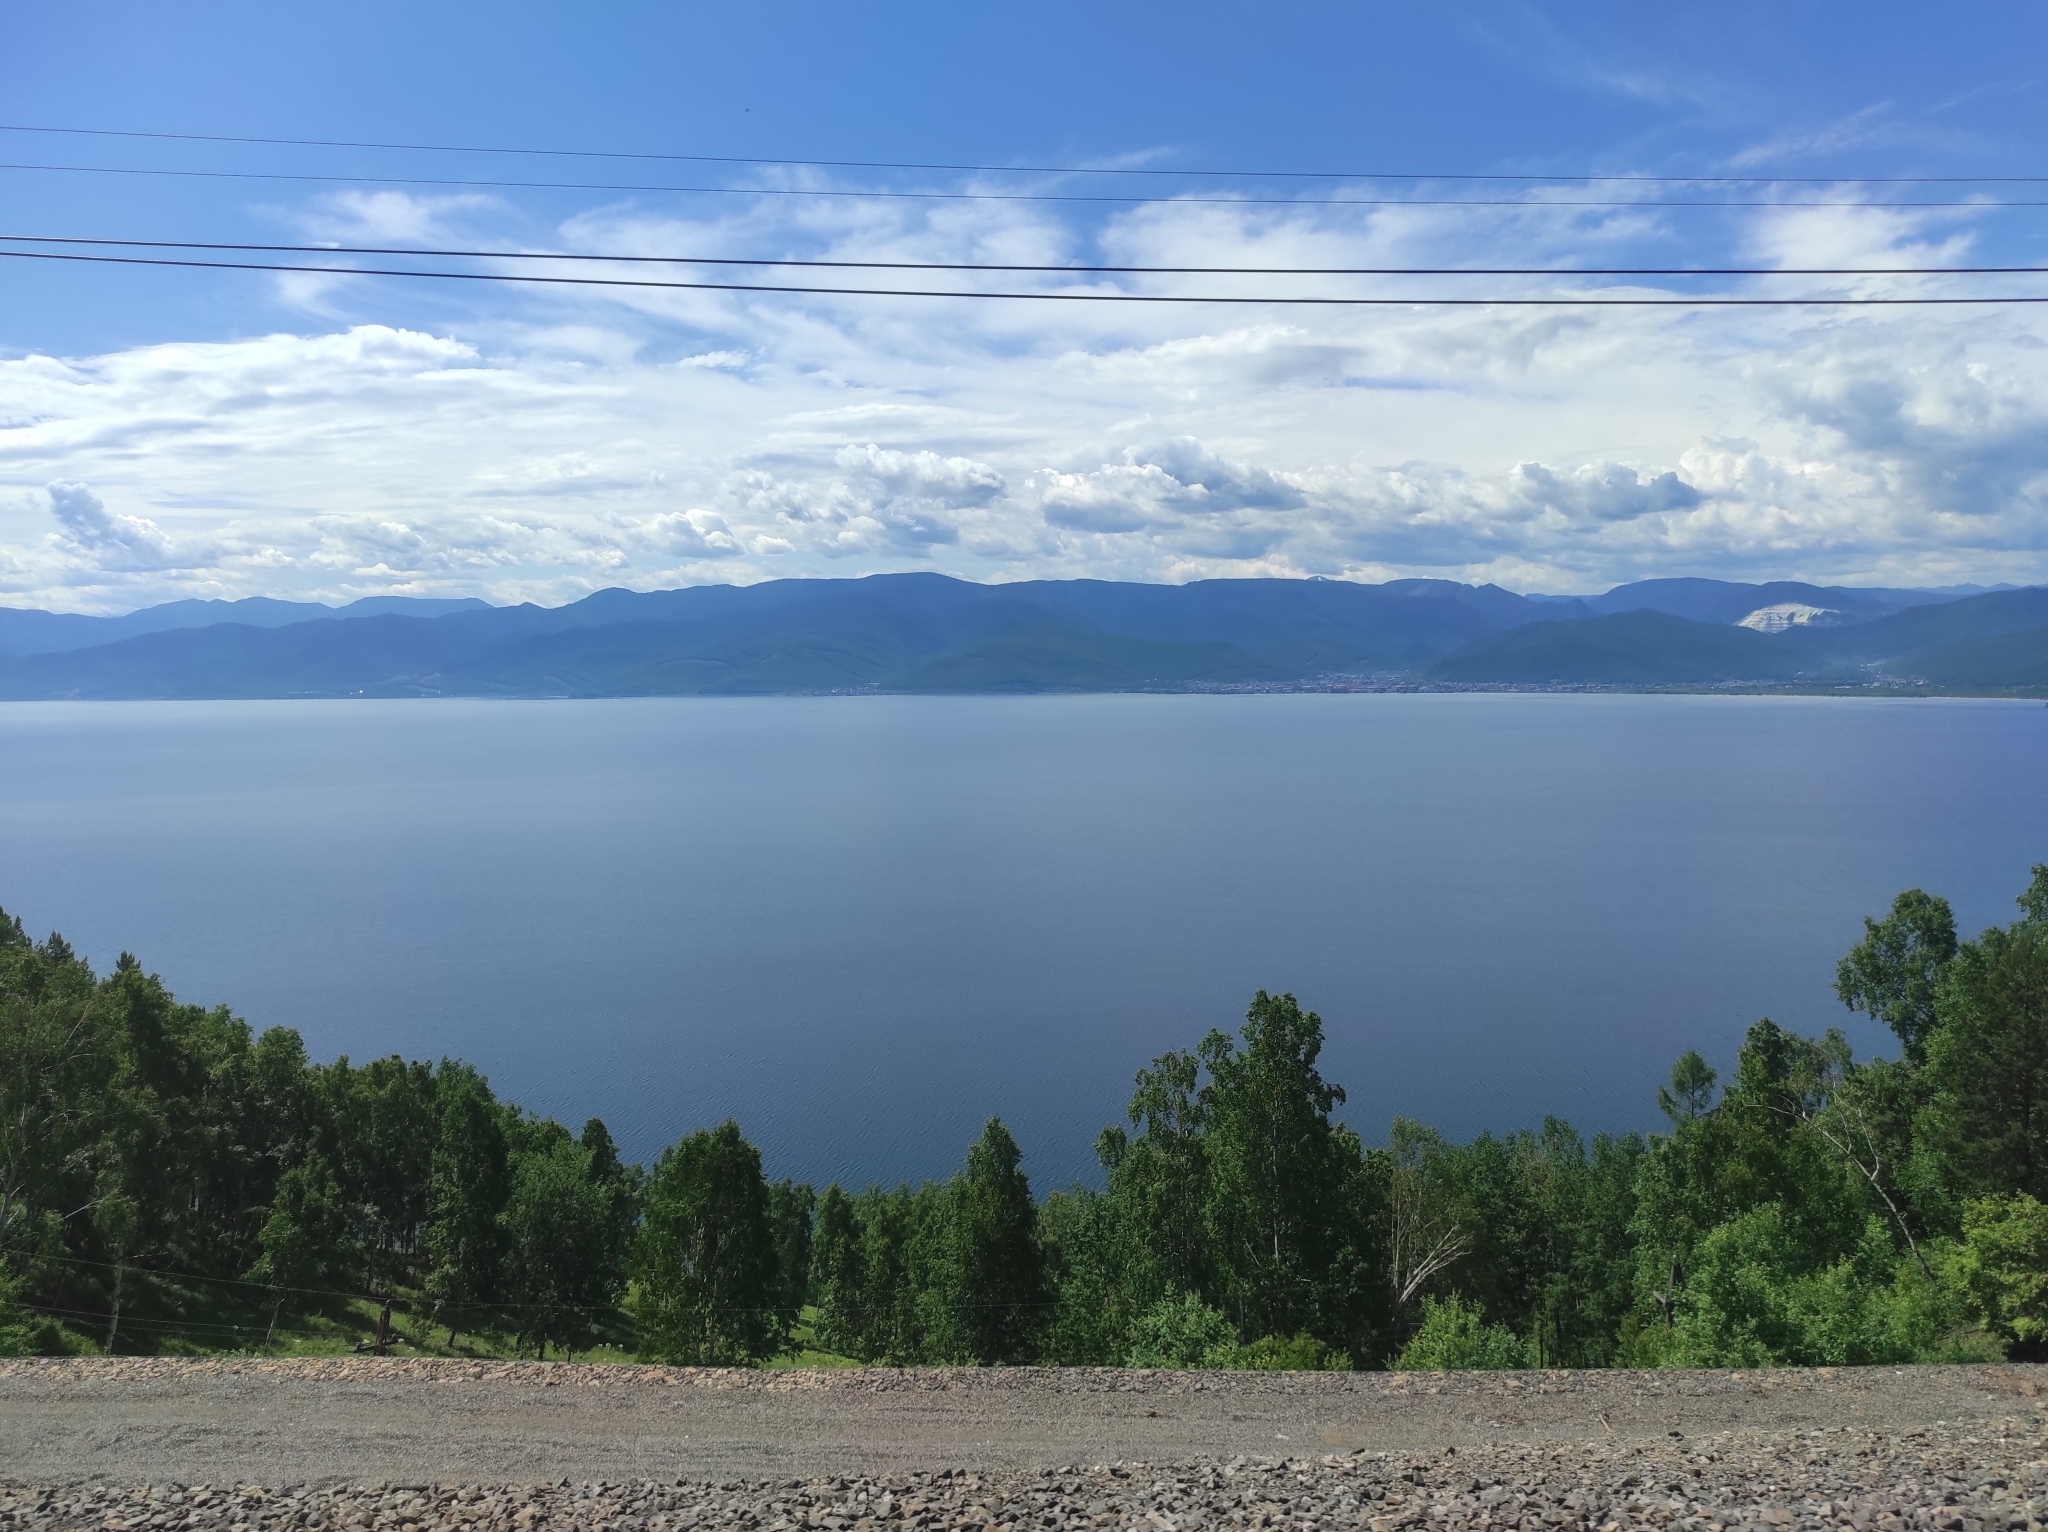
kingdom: Plantae
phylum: Tracheophyta
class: Pinopsida
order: Pinales
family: Pinaceae
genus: Pinus
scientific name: Pinus sylvestris
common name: Scots pine
